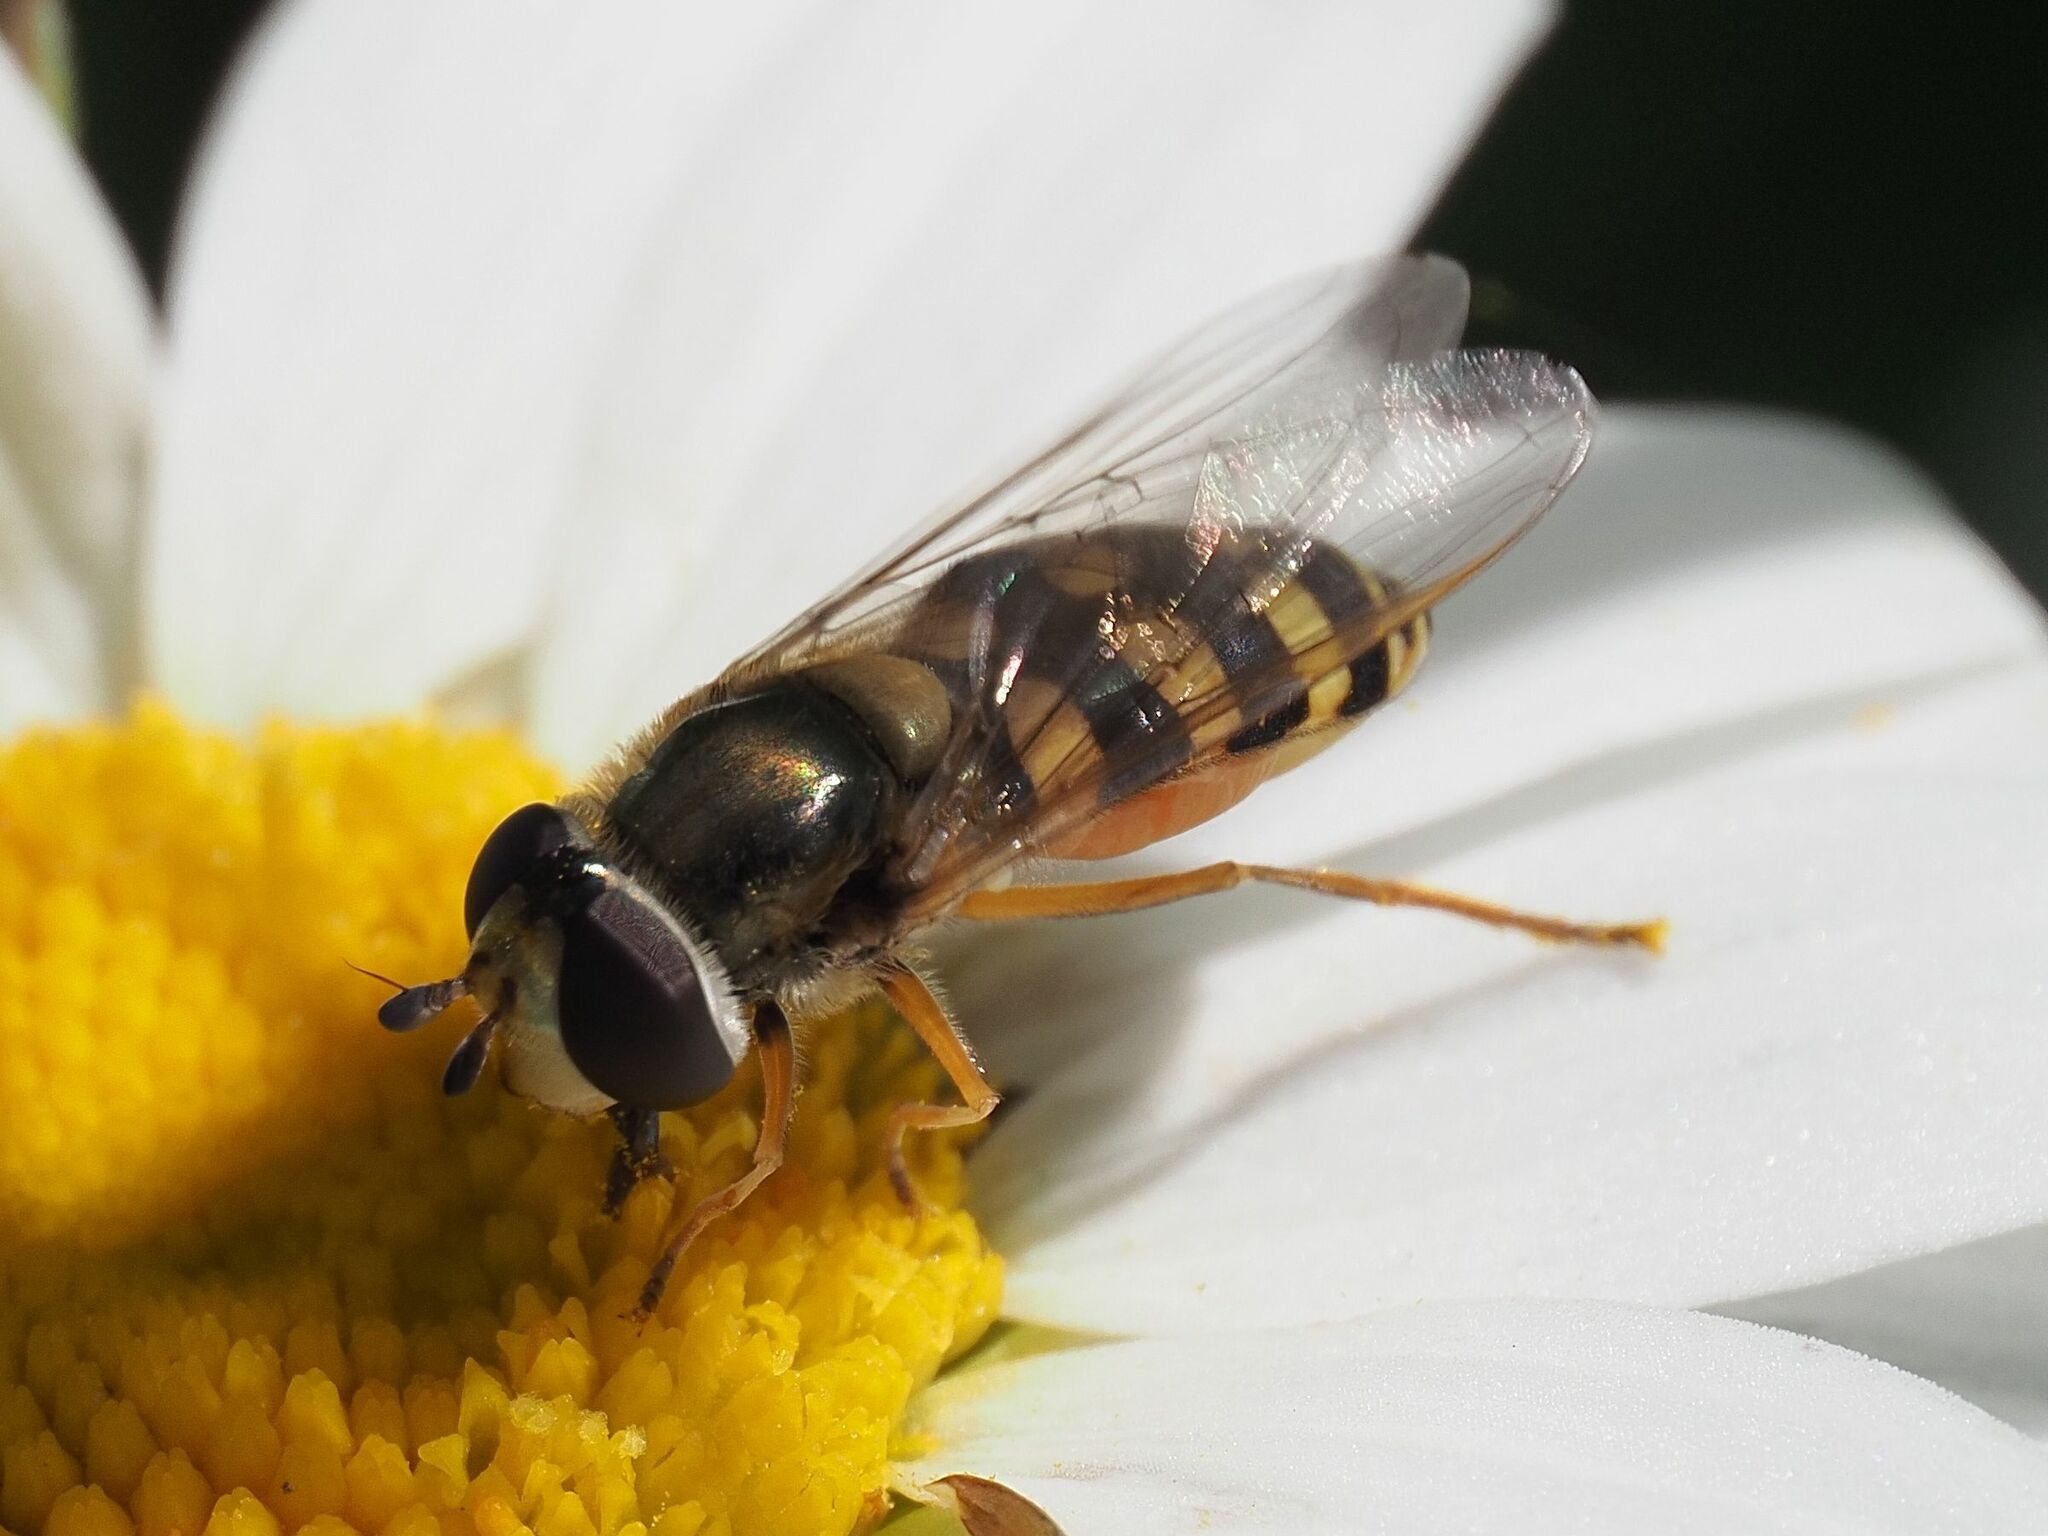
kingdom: Animalia
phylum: Arthropoda
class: Insecta
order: Diptera
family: Syrphidae
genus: Eupeodes
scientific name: Eupeodes corollae
